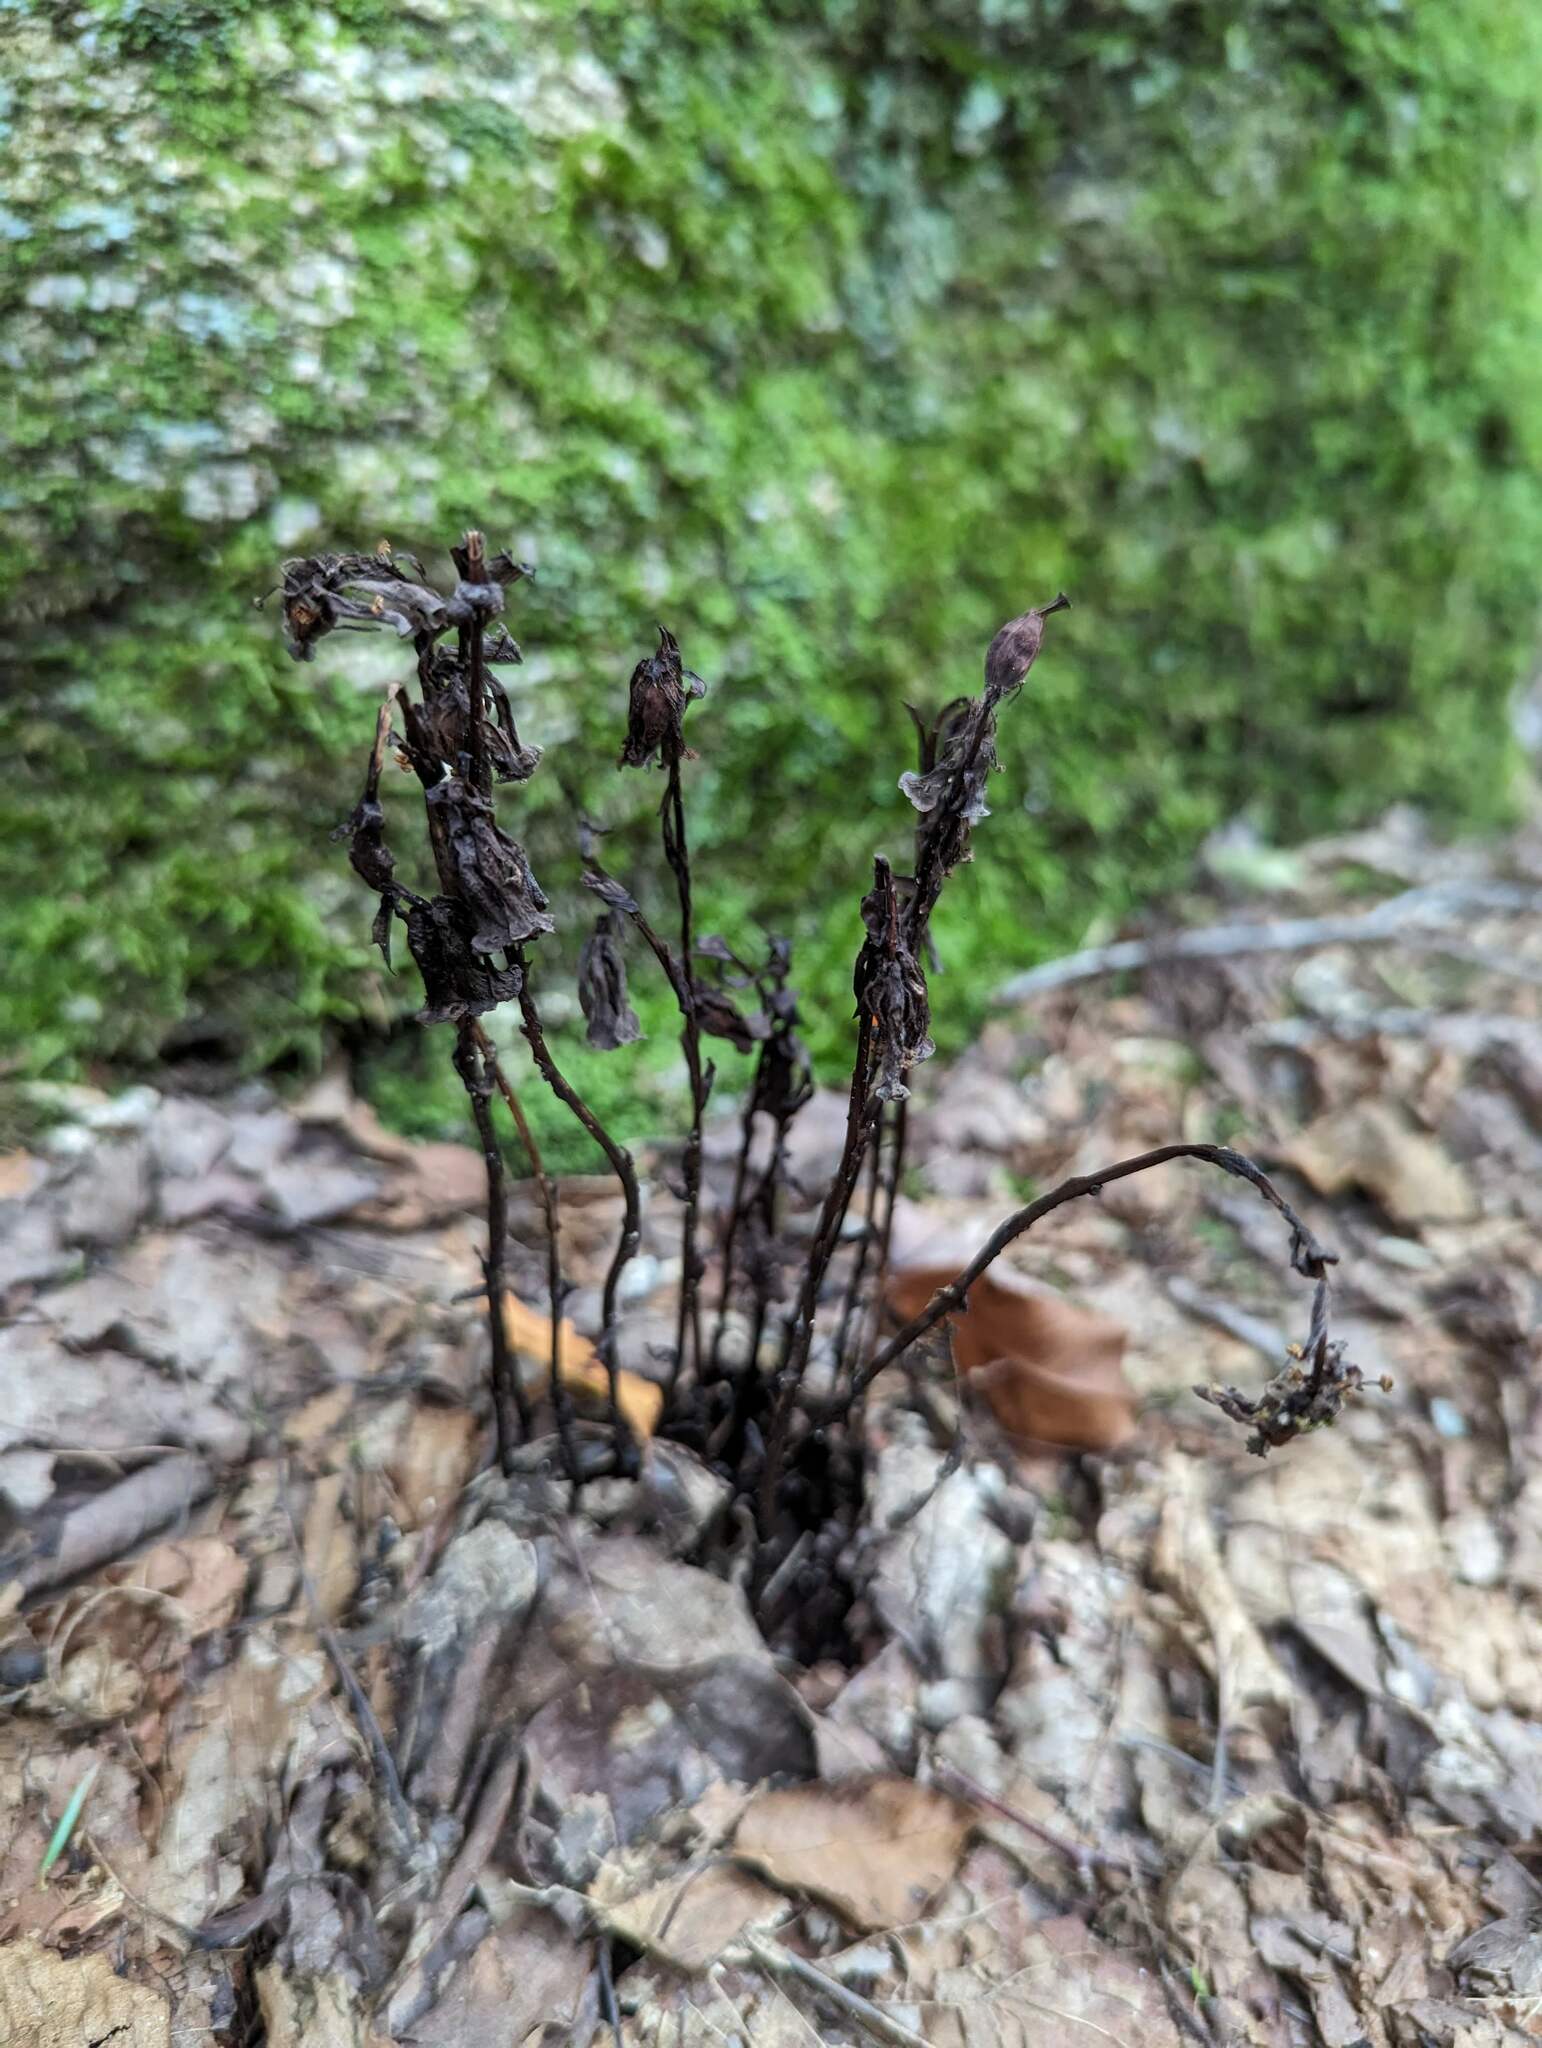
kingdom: Plantae
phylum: Tracheophyta
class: Magnoliopsida
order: Ericales
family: Ericaceae
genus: Monotropa
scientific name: Monotropa uniflora
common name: Convulsion root
